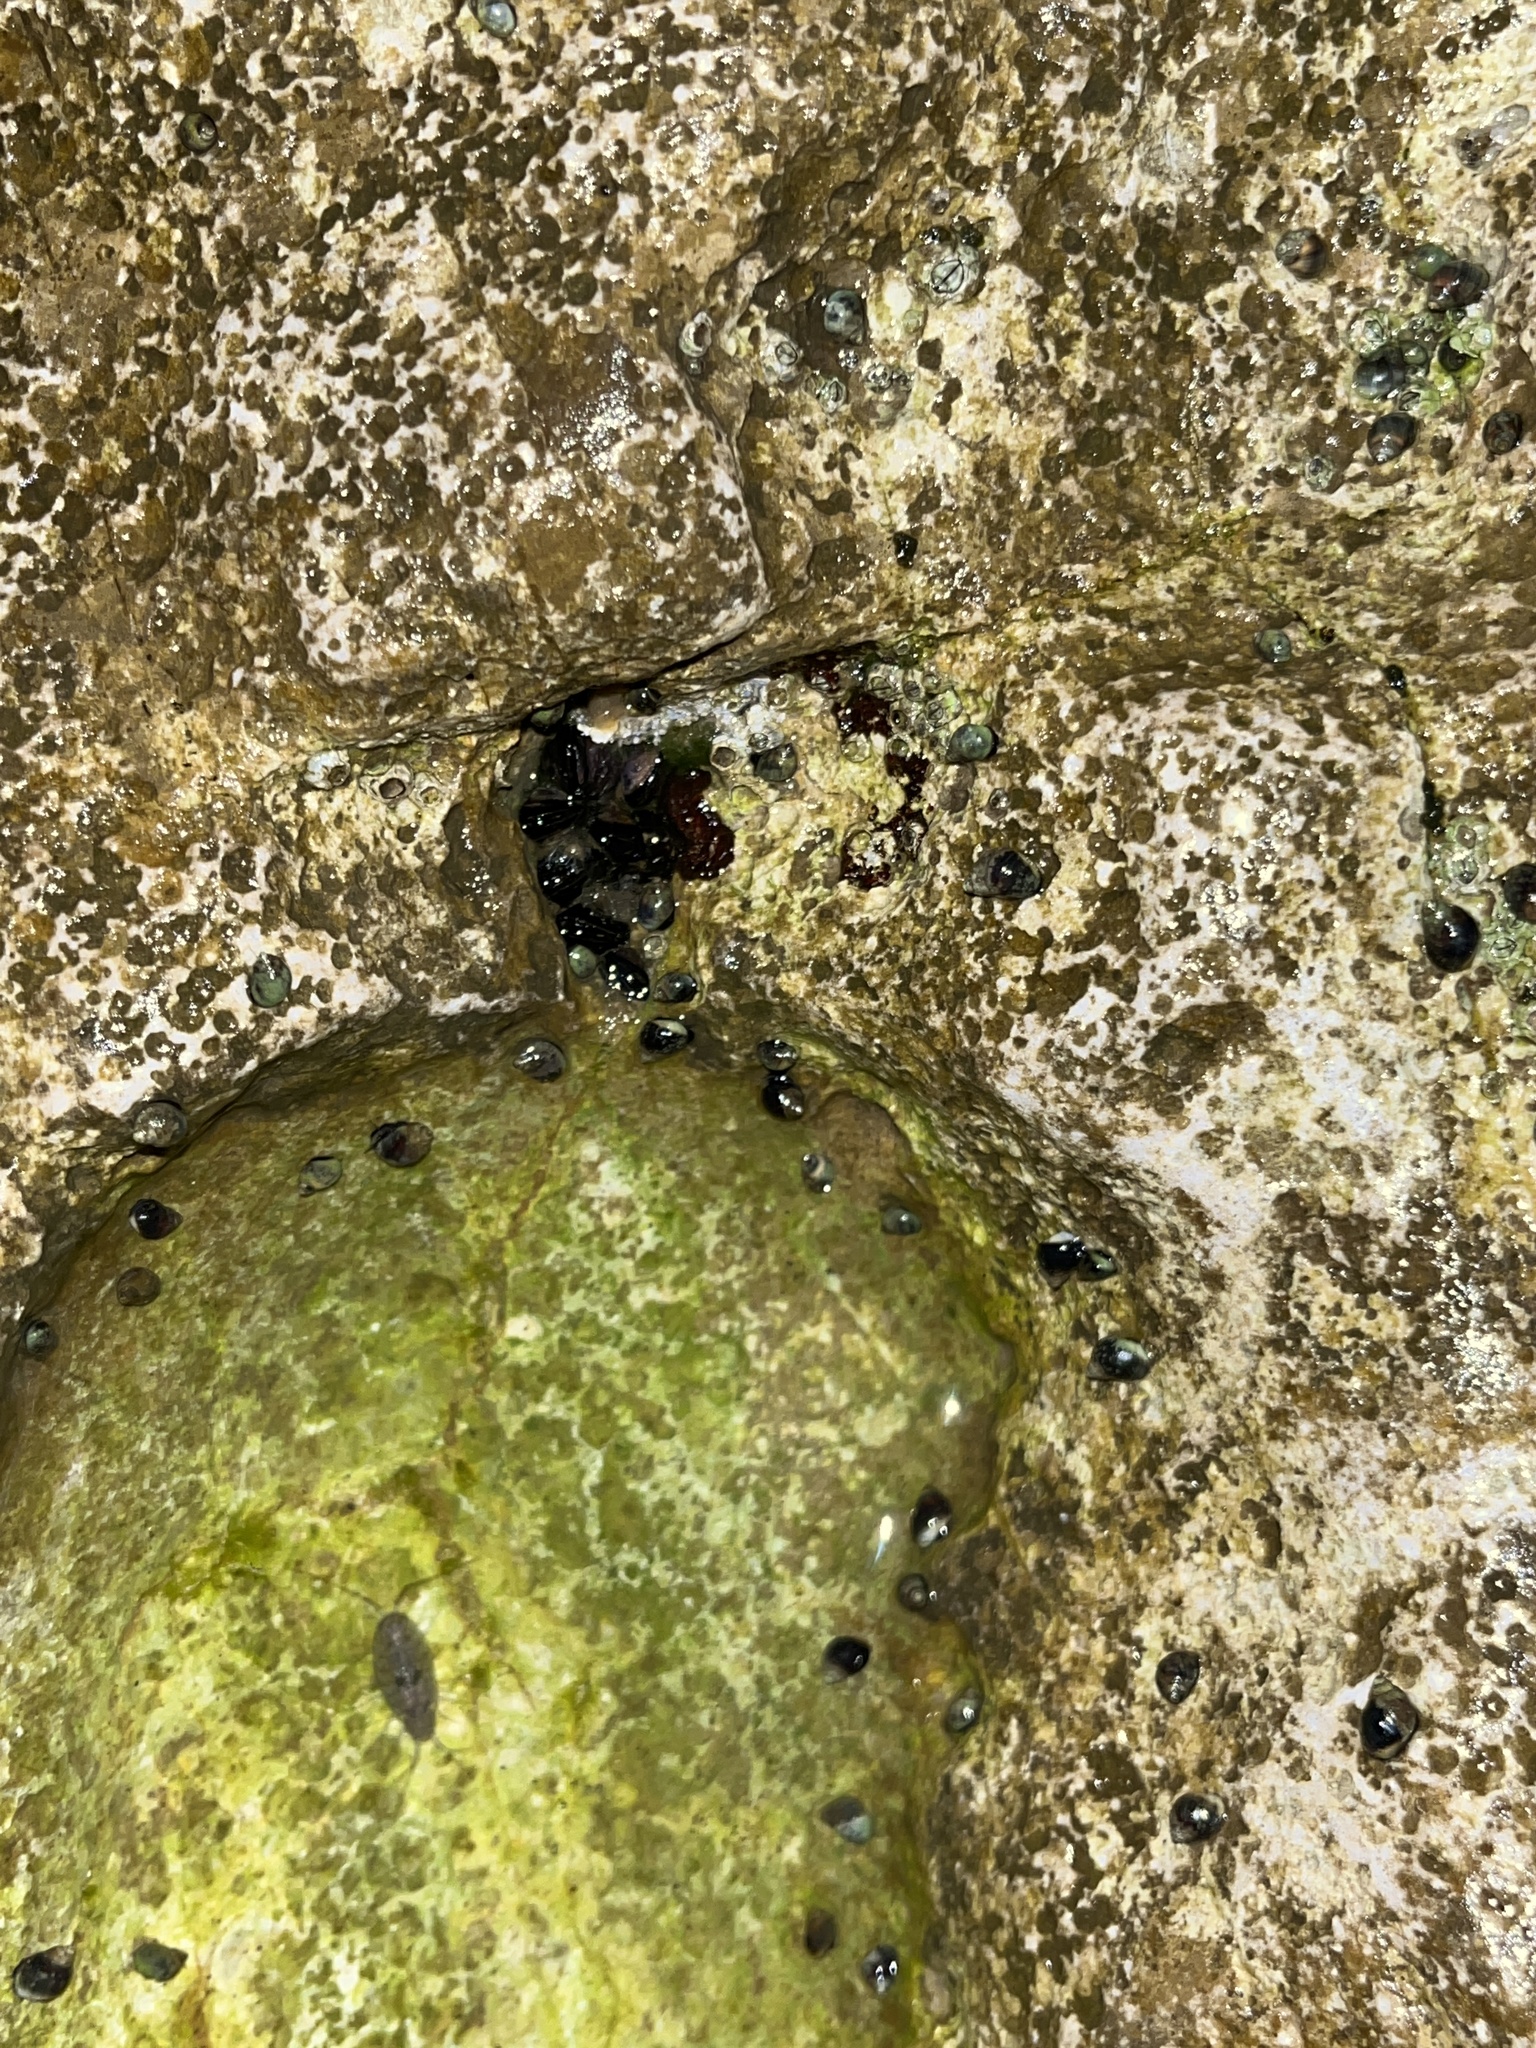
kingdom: Animalia
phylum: Arthropoda
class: Malacostraca
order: Isopoda
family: Ligiidae
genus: Ligia
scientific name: Ligia italica
